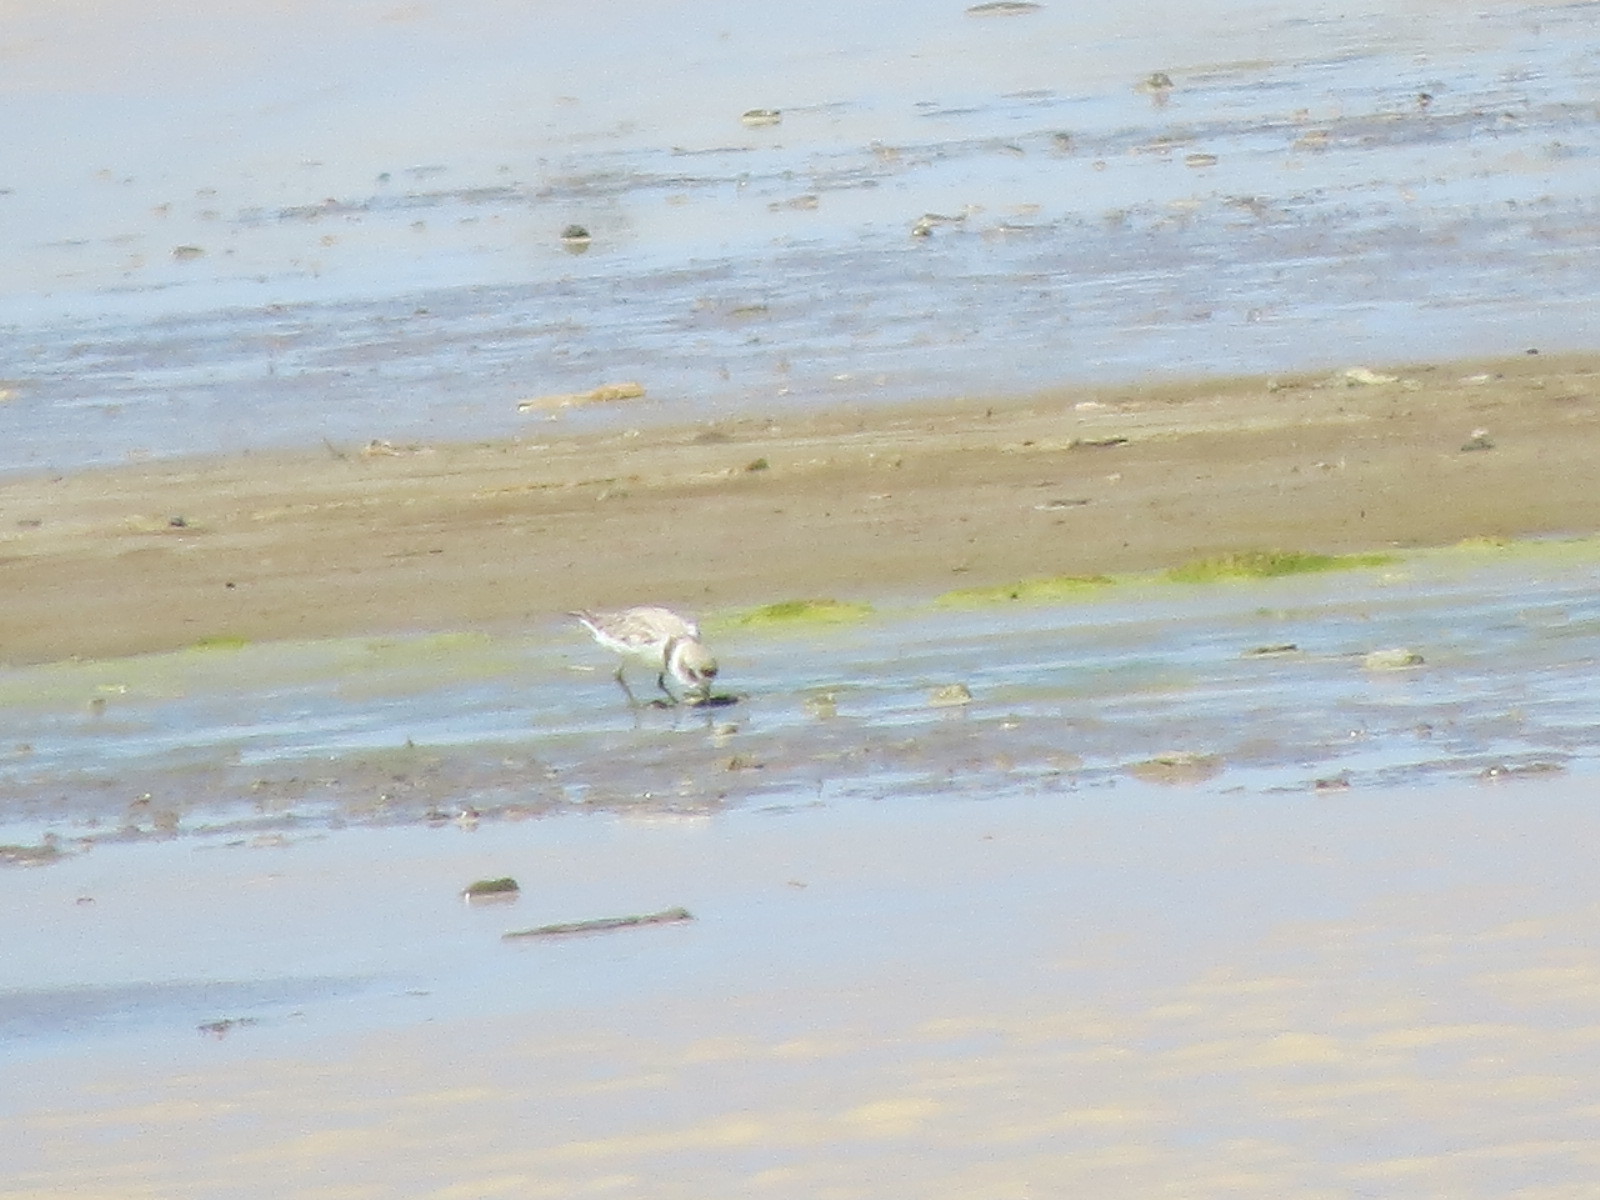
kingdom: Animalia
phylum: Chordata
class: Aves
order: Charadriiformes
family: Charadriidae
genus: Anarhynchus
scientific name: Anarhynchus
